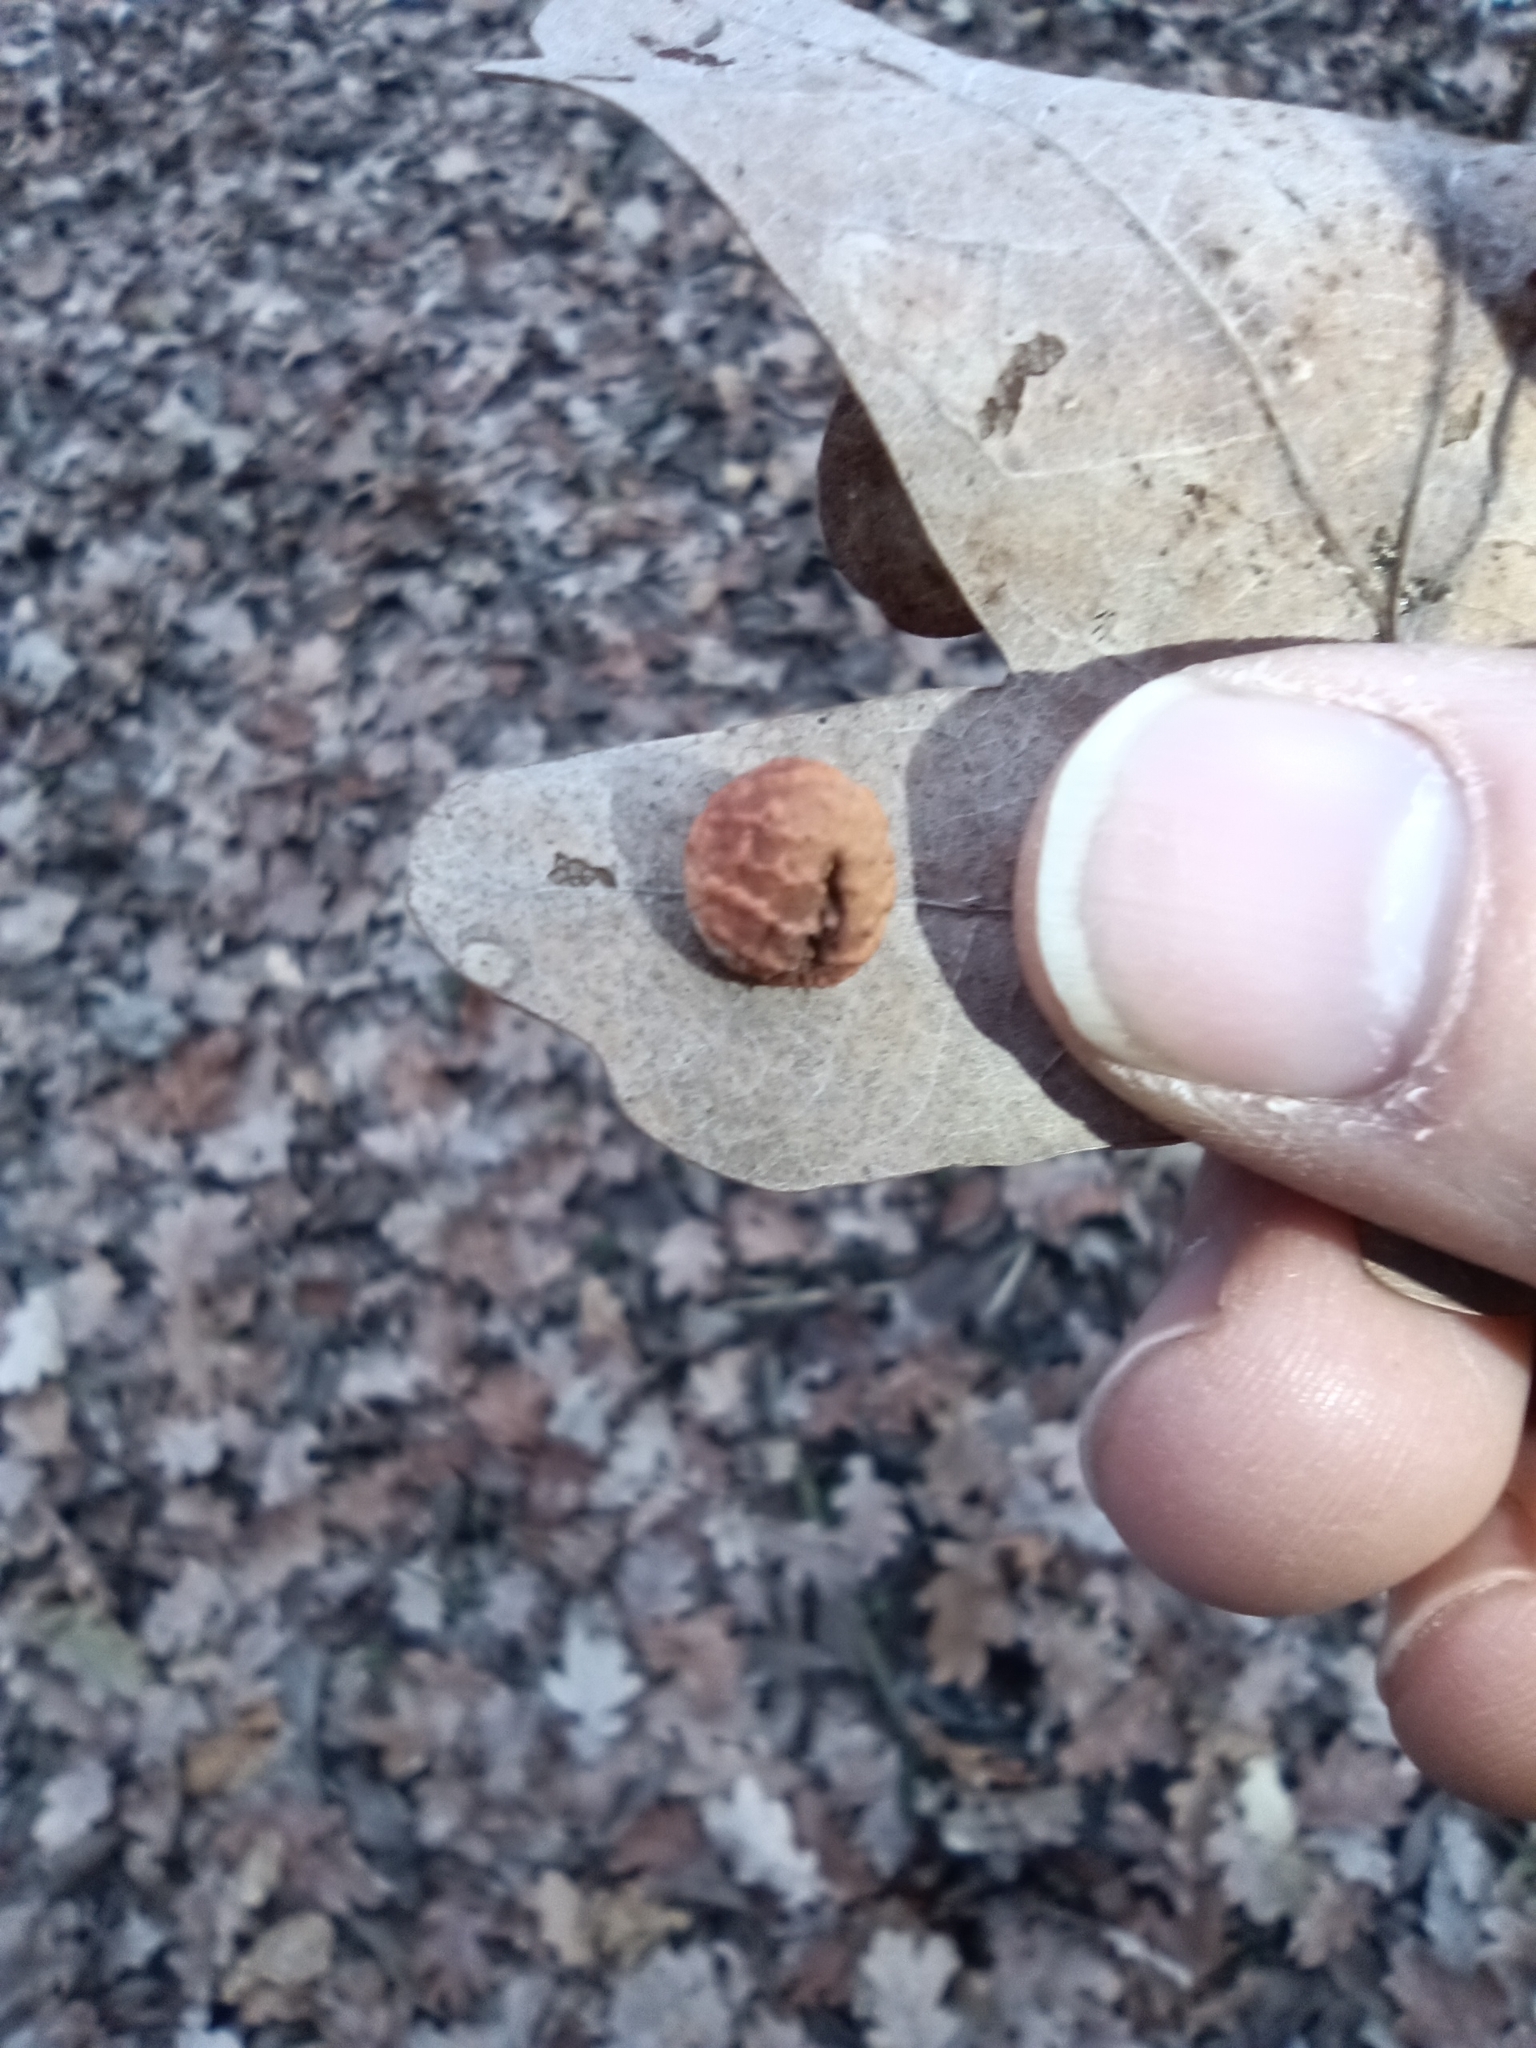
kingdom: Animalia
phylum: Arthropoda
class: Insecta
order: Hymenoptera
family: Cynipidae
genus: Cynips
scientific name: Cynips longiventris
